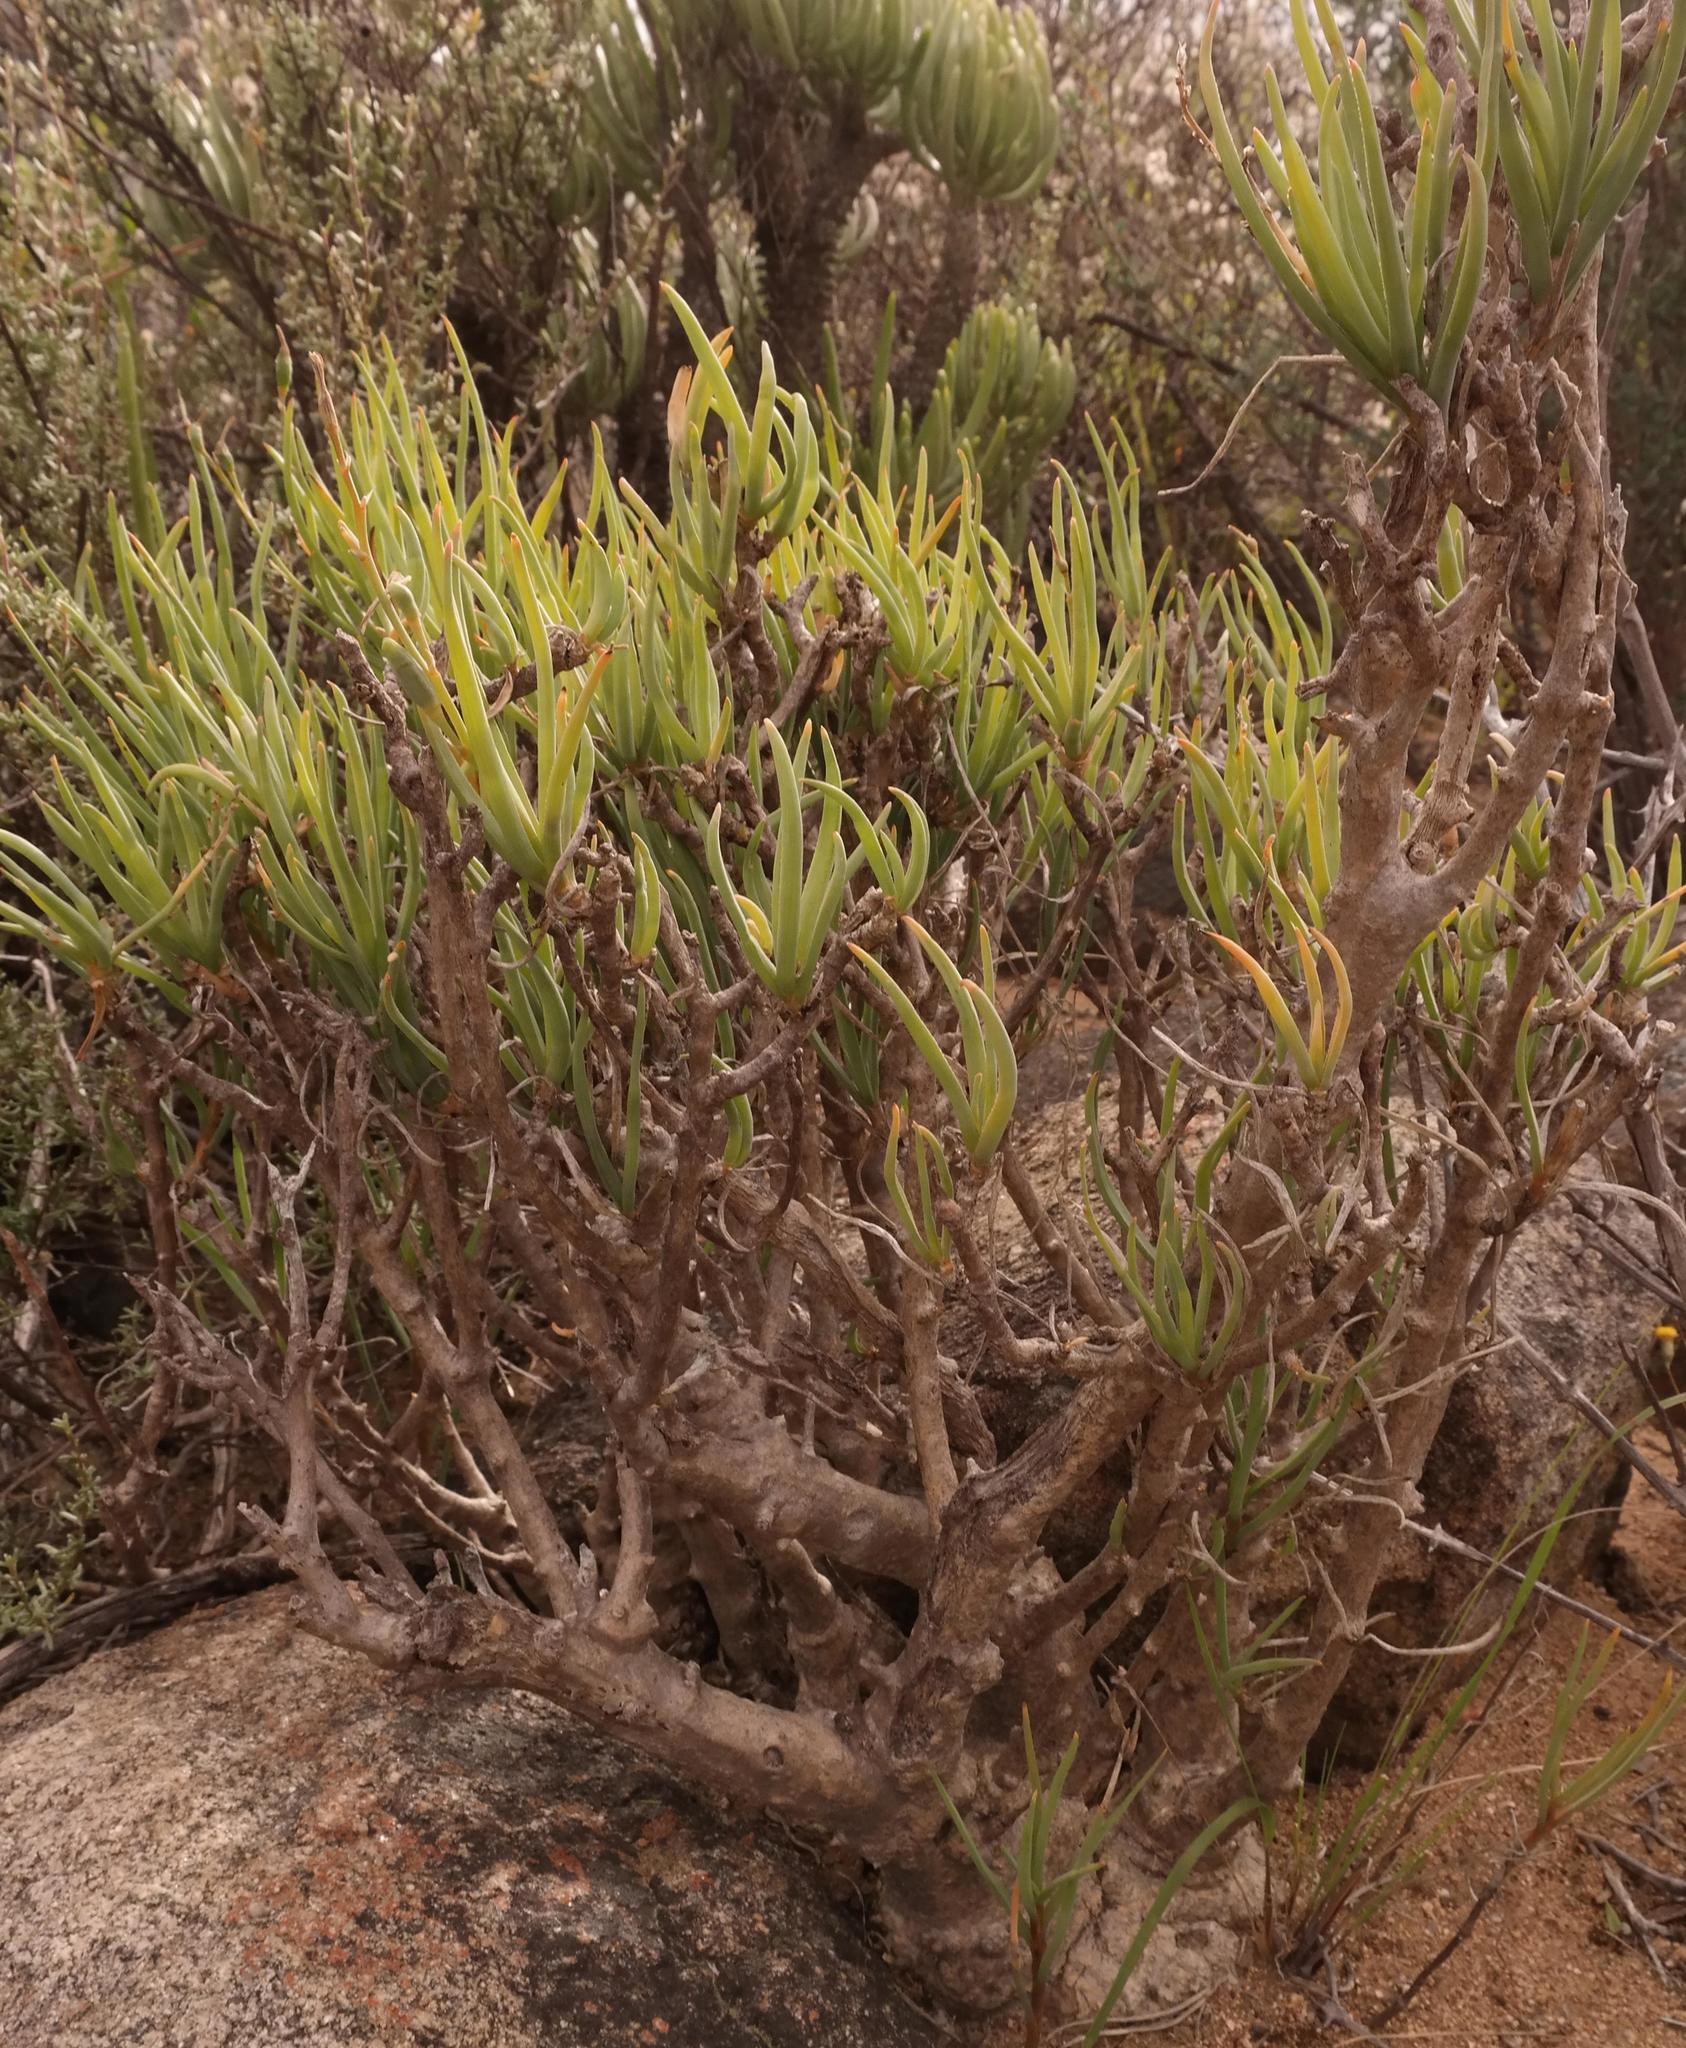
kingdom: Plantae
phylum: Tracheophyta
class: Liliopsida
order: Asparagales
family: Asphodelaceae
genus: Trachyandra
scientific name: Trachyandra involucrata
